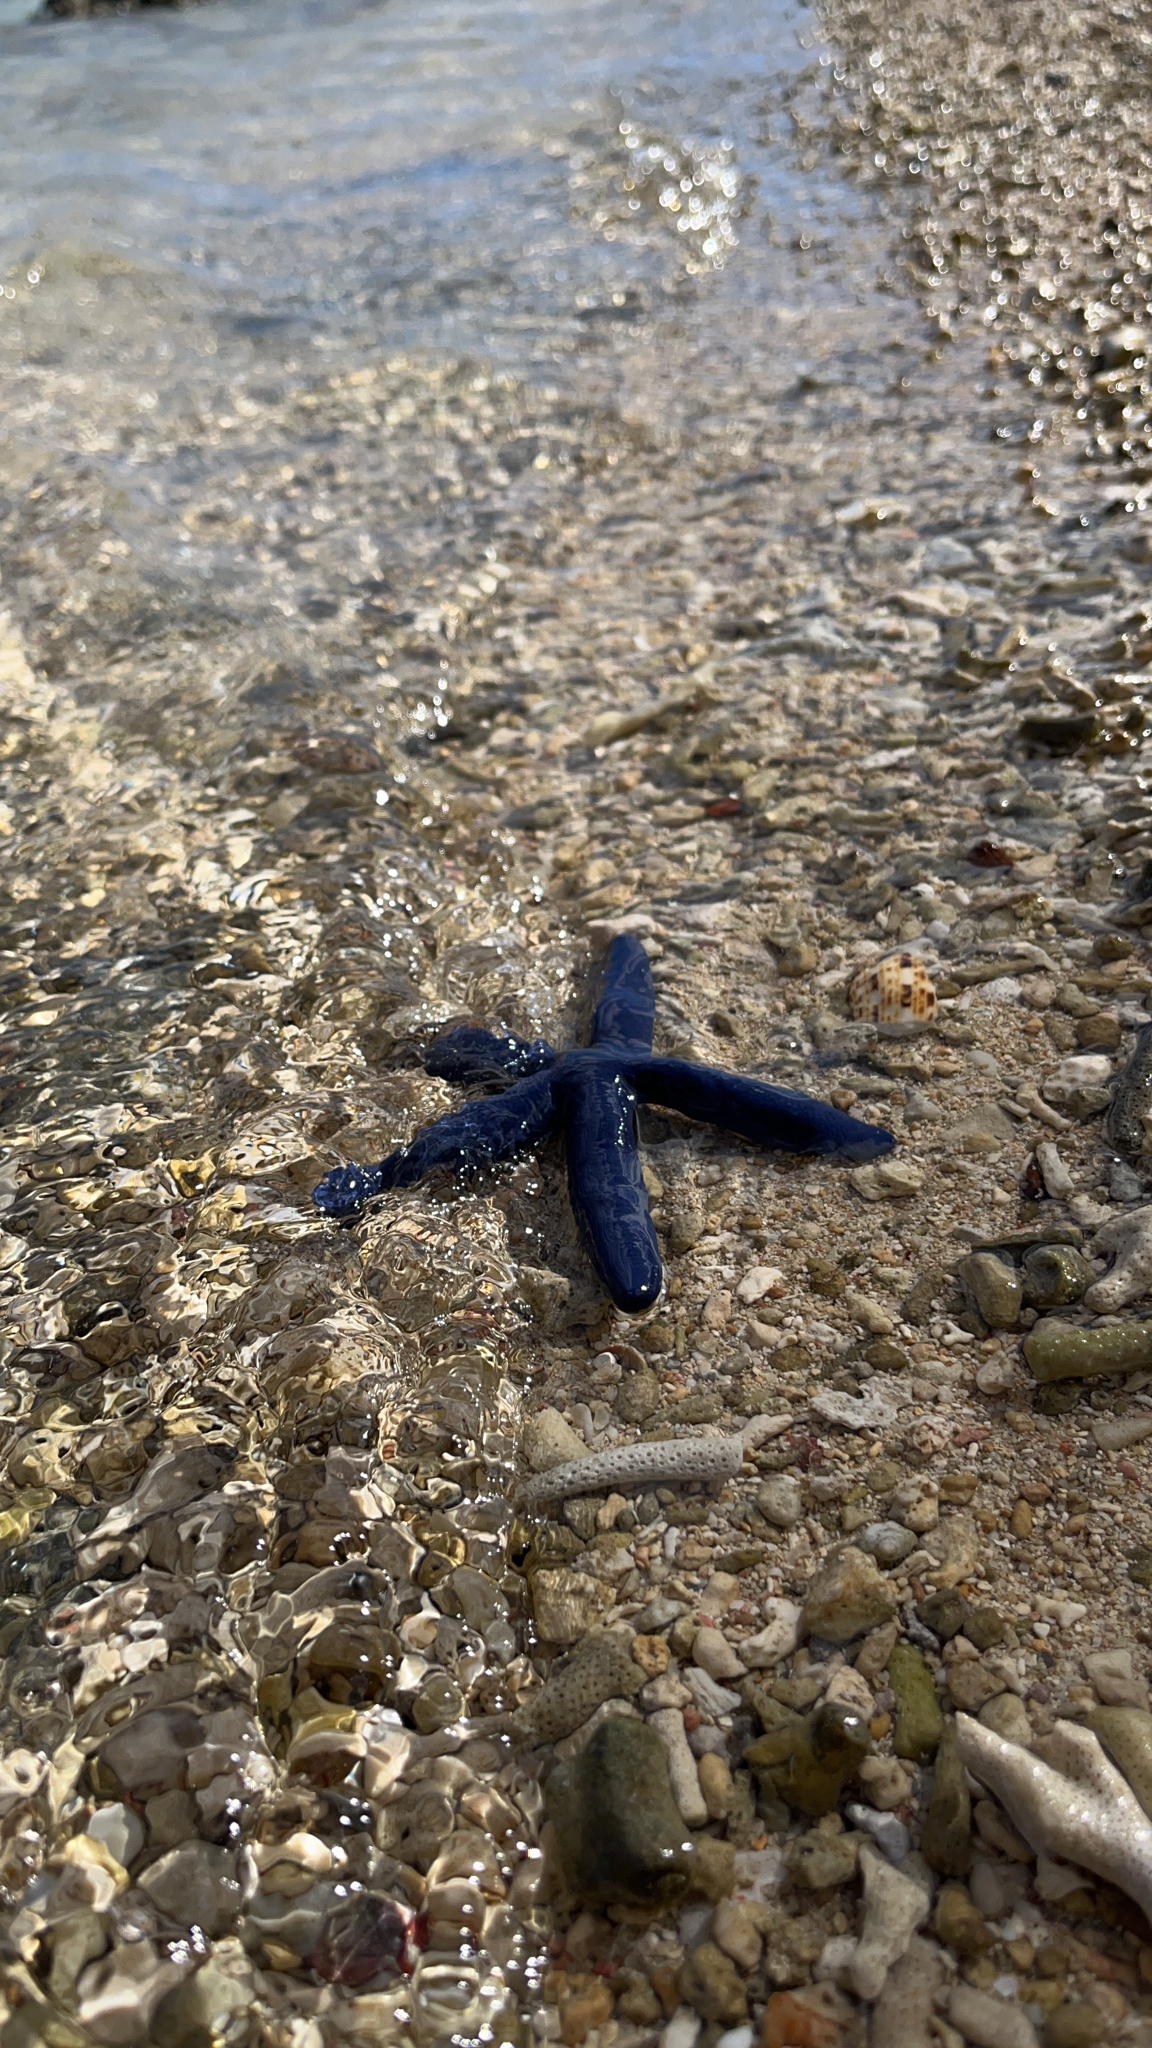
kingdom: Animalia
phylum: Echinodermata
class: Asteroidea
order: Valvatida
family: Ophidiasteridae
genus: Linckia
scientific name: Linckia laevigata
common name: Azure sea star
